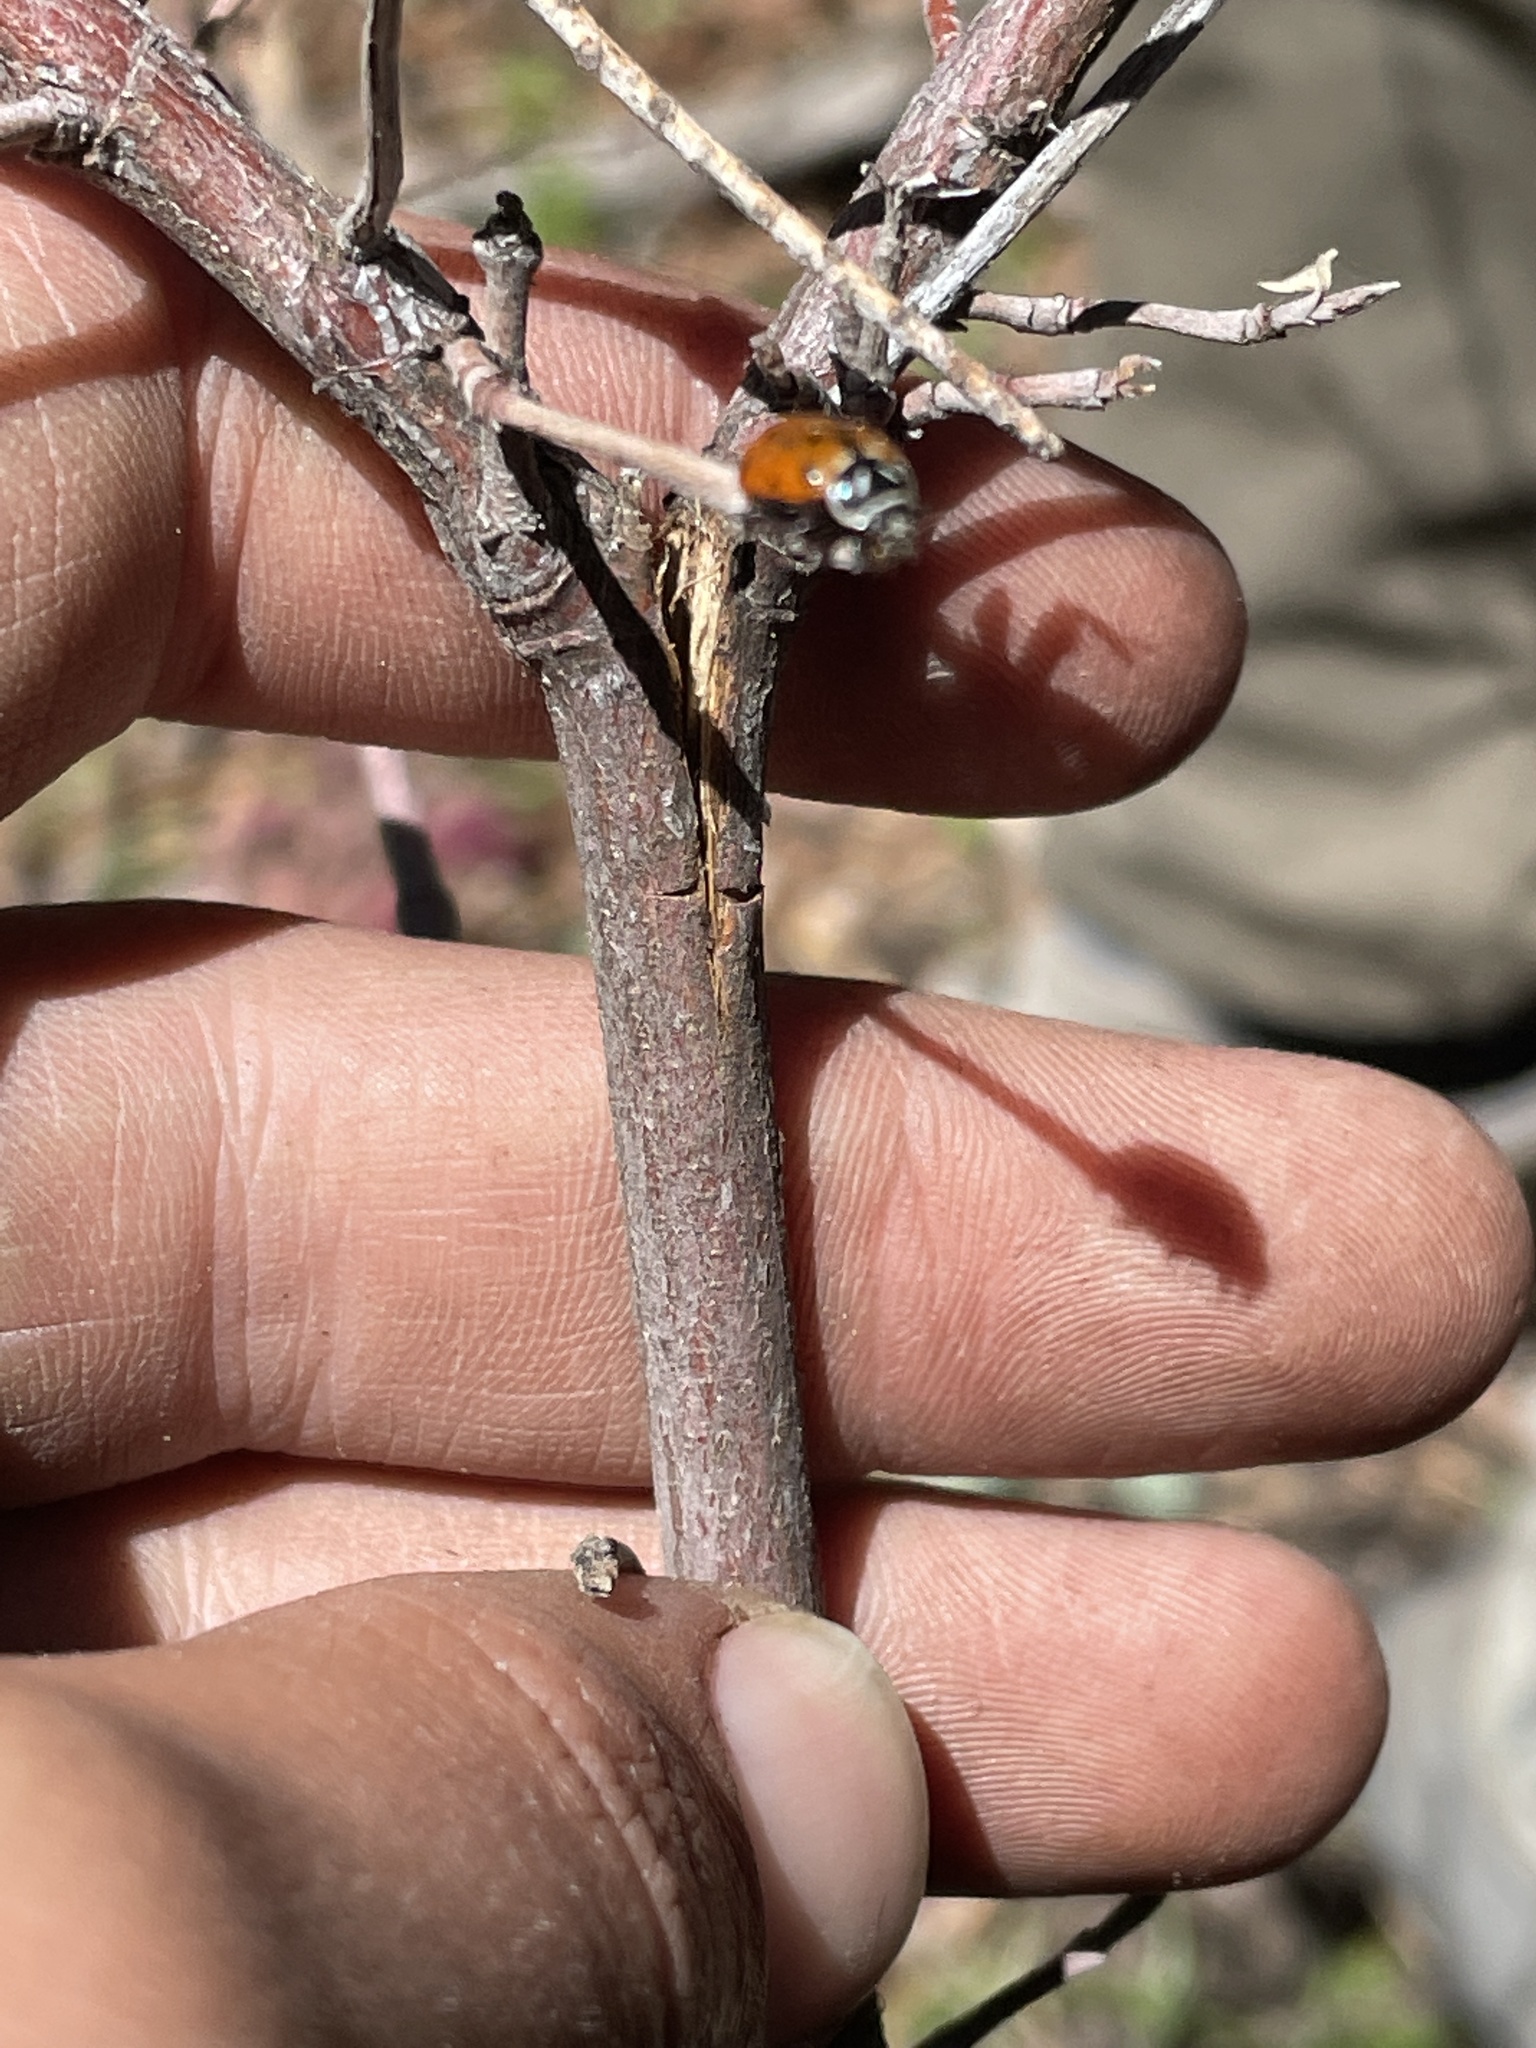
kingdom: Animalia
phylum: Arthropoda
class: Insecta
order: Coleoptera
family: Coccinellidae
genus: Hippodamia
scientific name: Hippodamia convergens
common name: Convergent lady beetle
